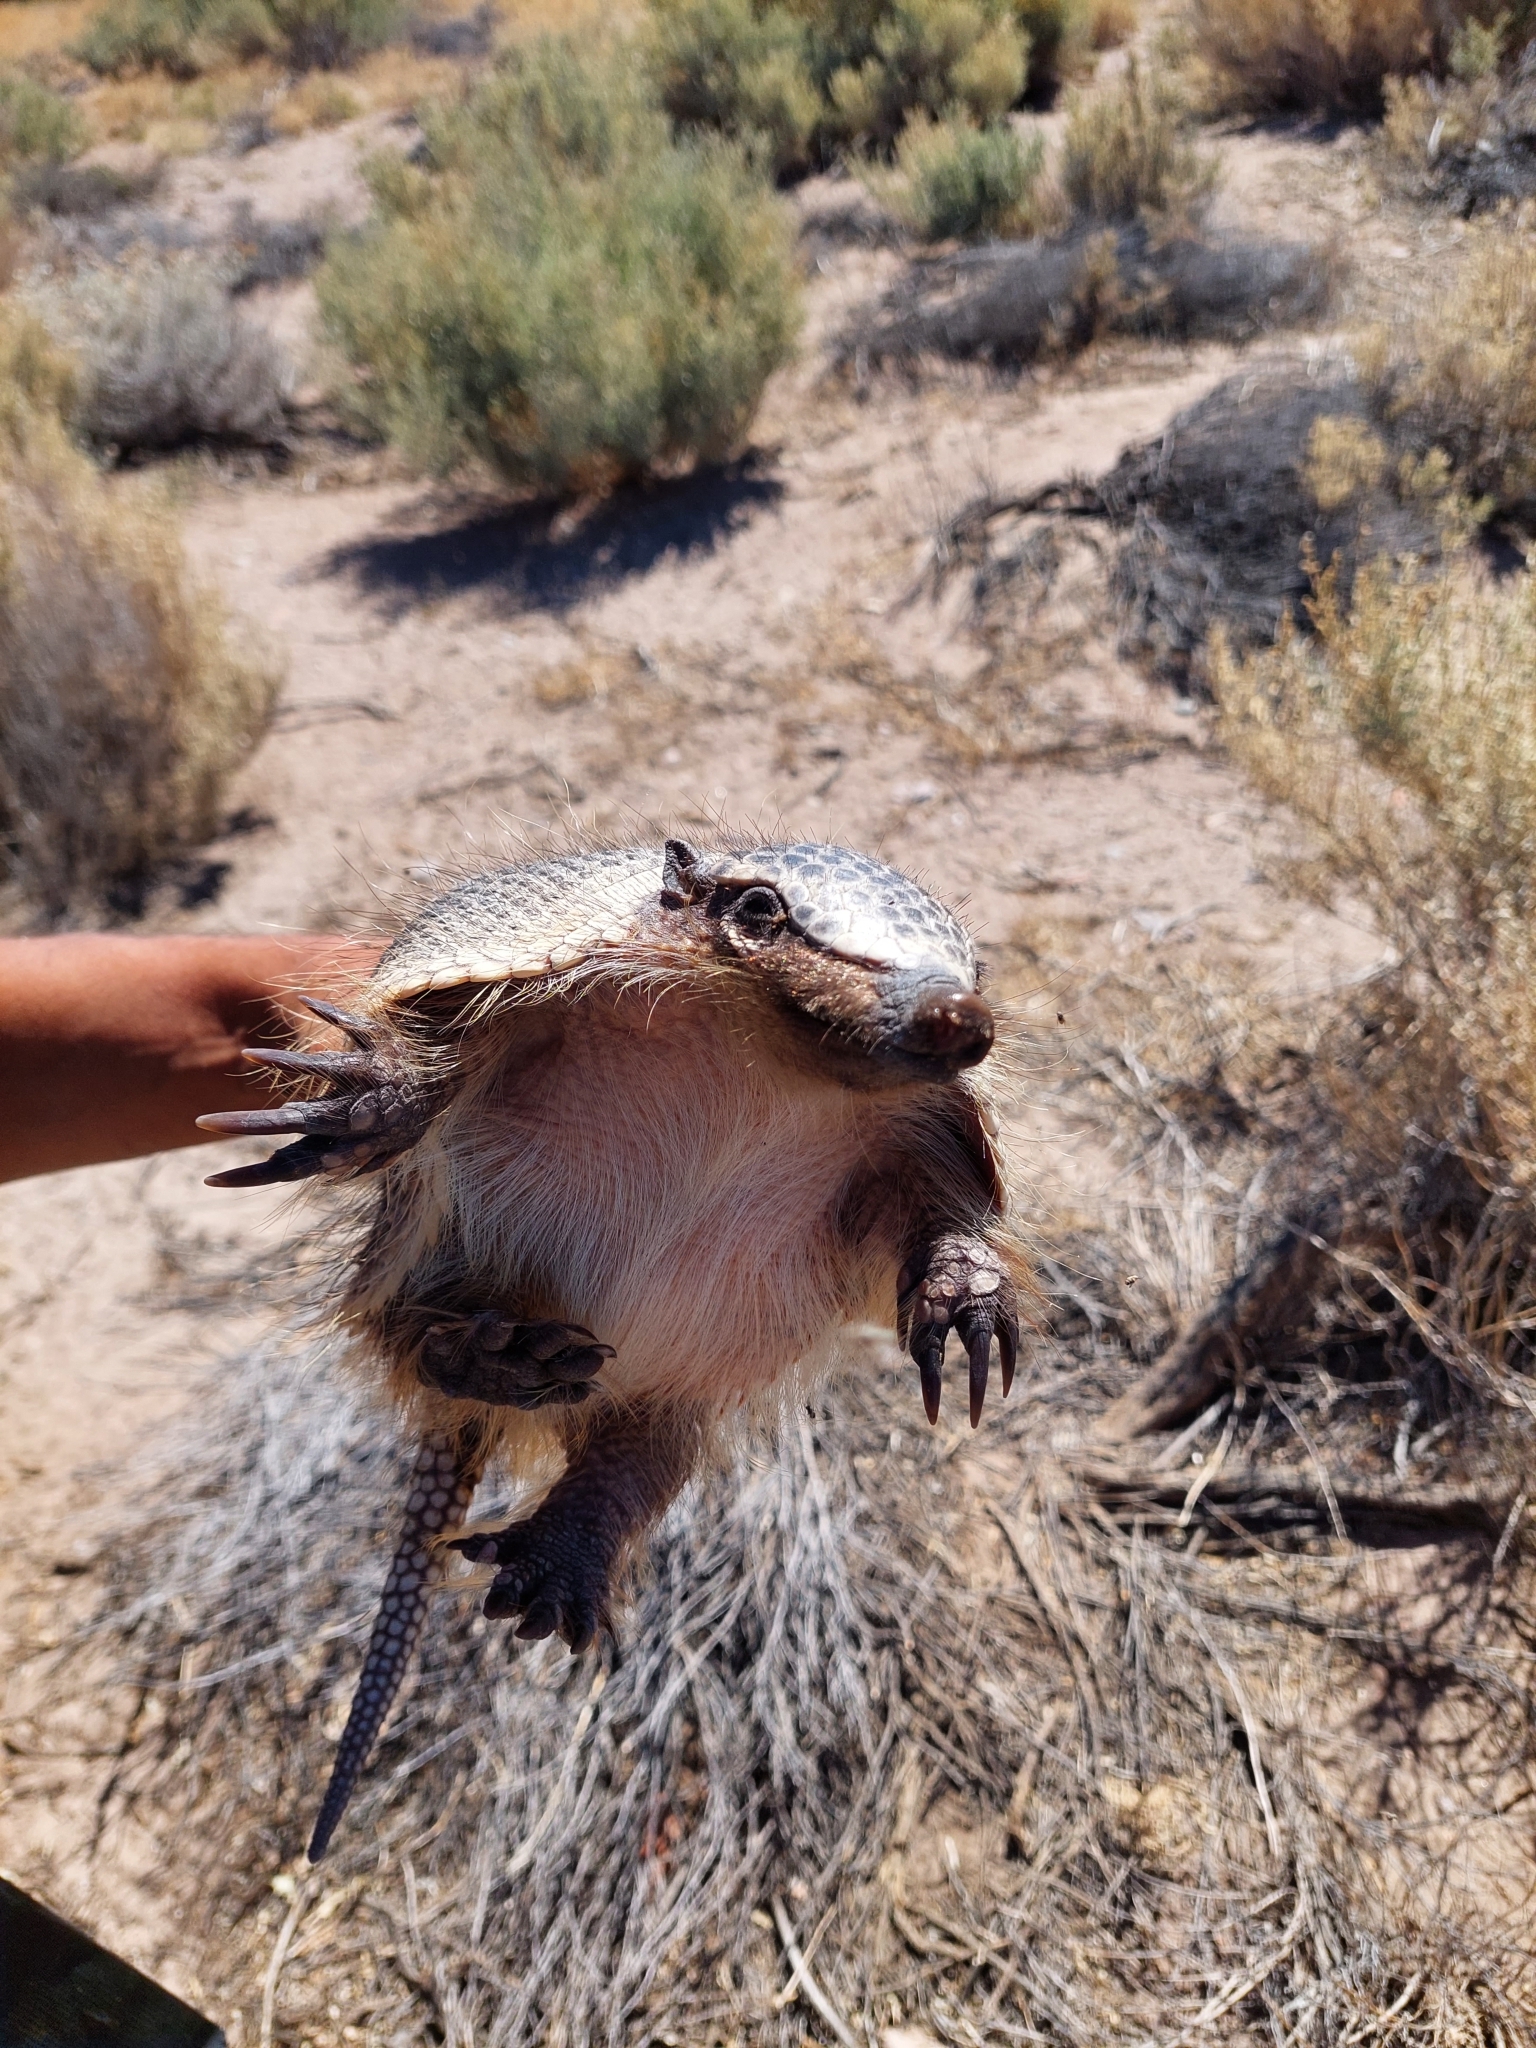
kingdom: Animalia
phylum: Chordata
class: Mammalia
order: Cingulata
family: Dasypodidae
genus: Zaedyus
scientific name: Zaedyus pichiy
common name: Pichi
